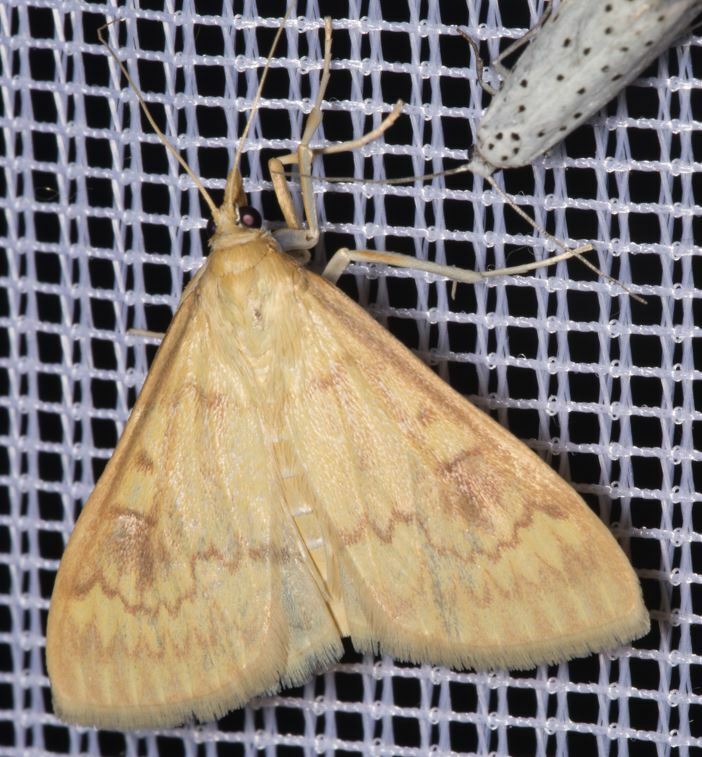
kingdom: Animalia
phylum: Arthropoda
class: Insecta
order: Lepidoptera
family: Crambidae
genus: Ostrinia
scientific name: Ostrinia nubilalis
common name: European corn borer
